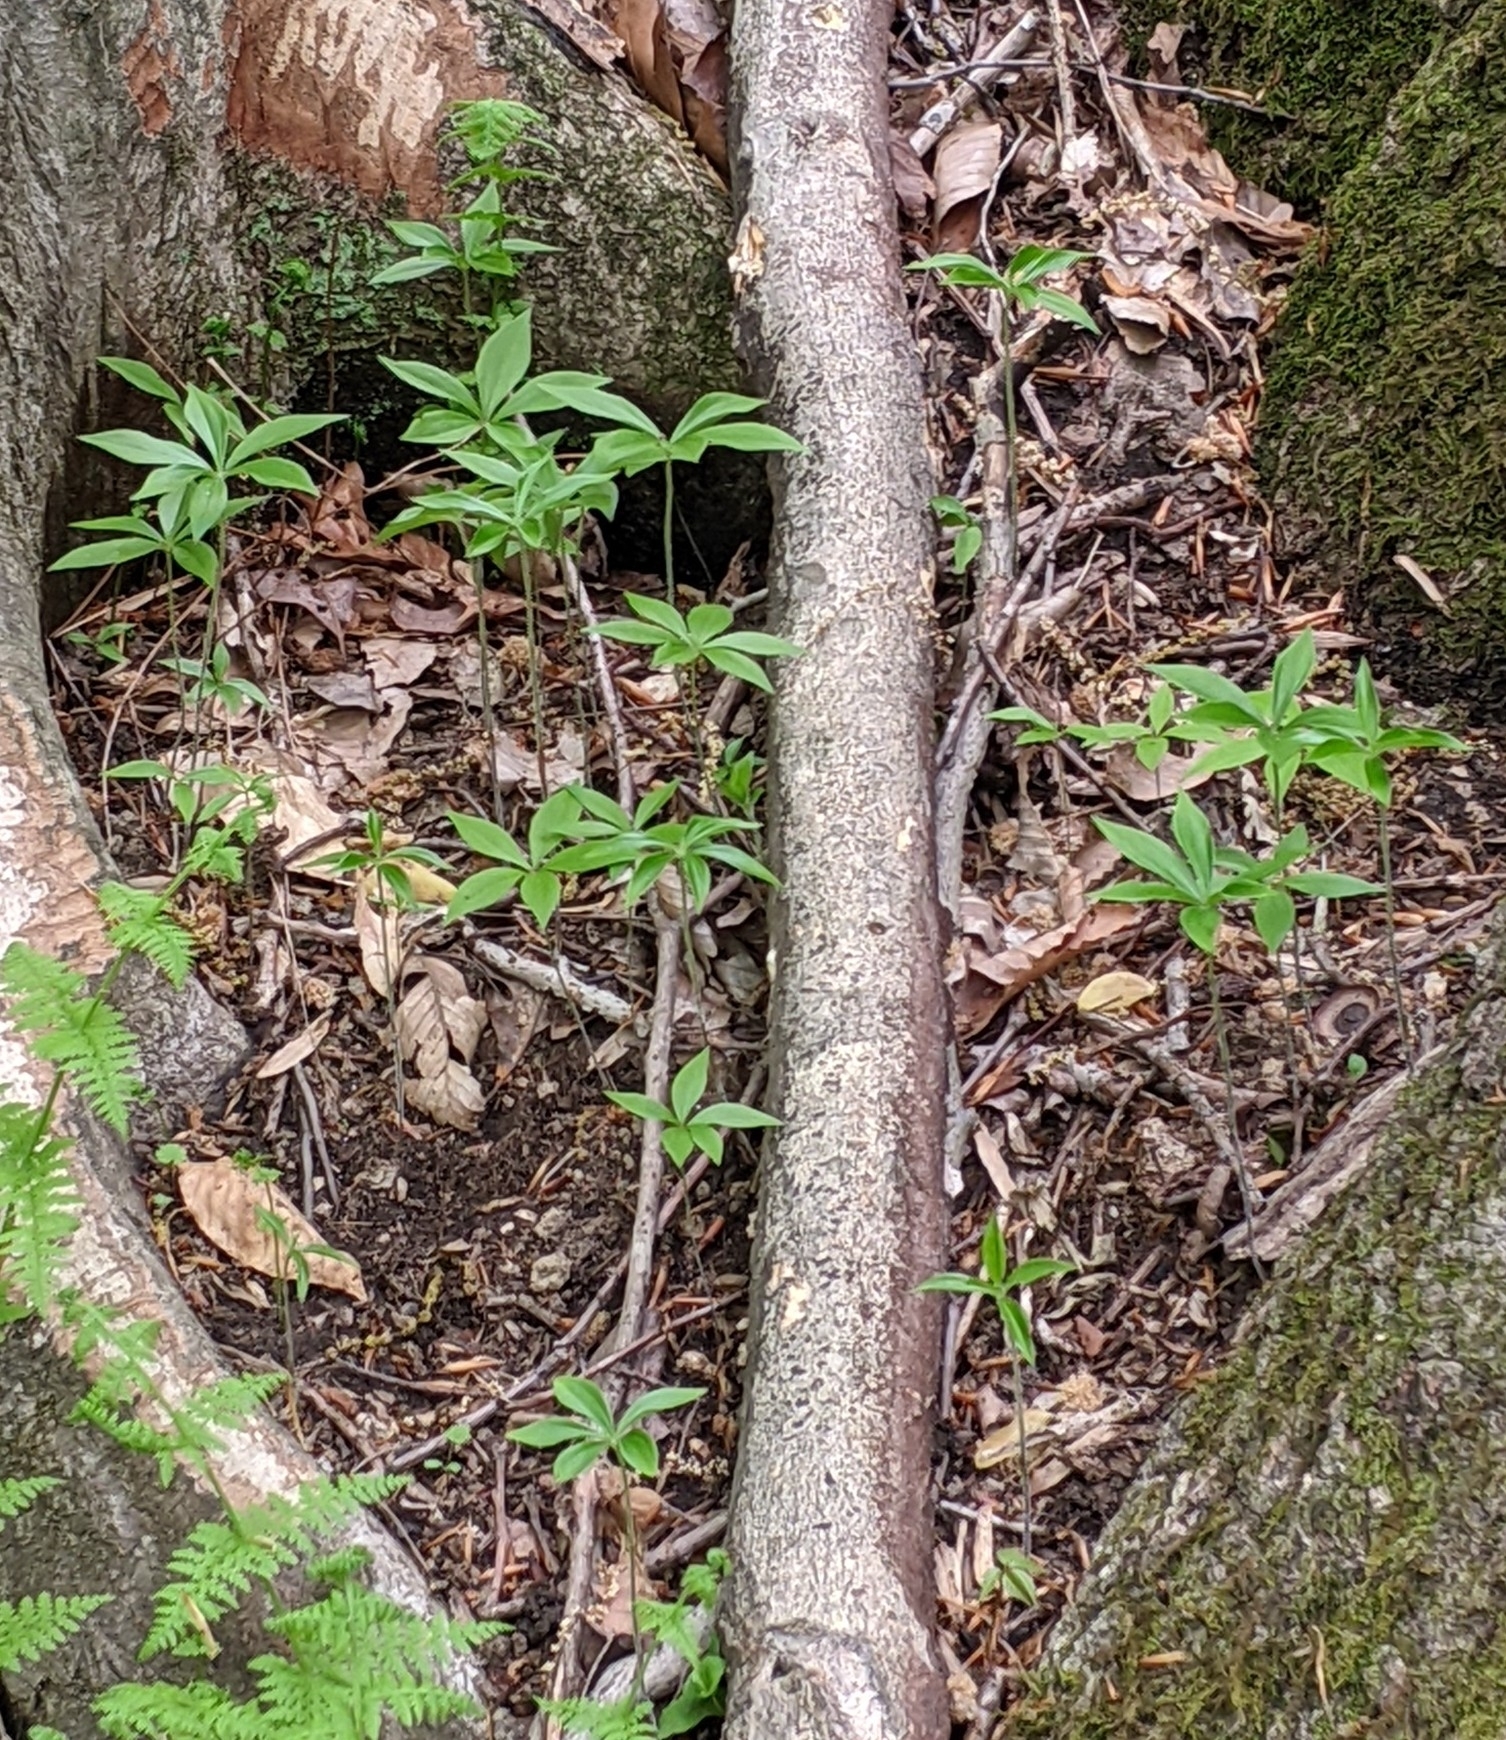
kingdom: Plantae
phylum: Tracheophyta
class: Liliopsida
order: Liliales
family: Liliaceae
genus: Medeola
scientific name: Medeola virginiana
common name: Indian cucumber-root
